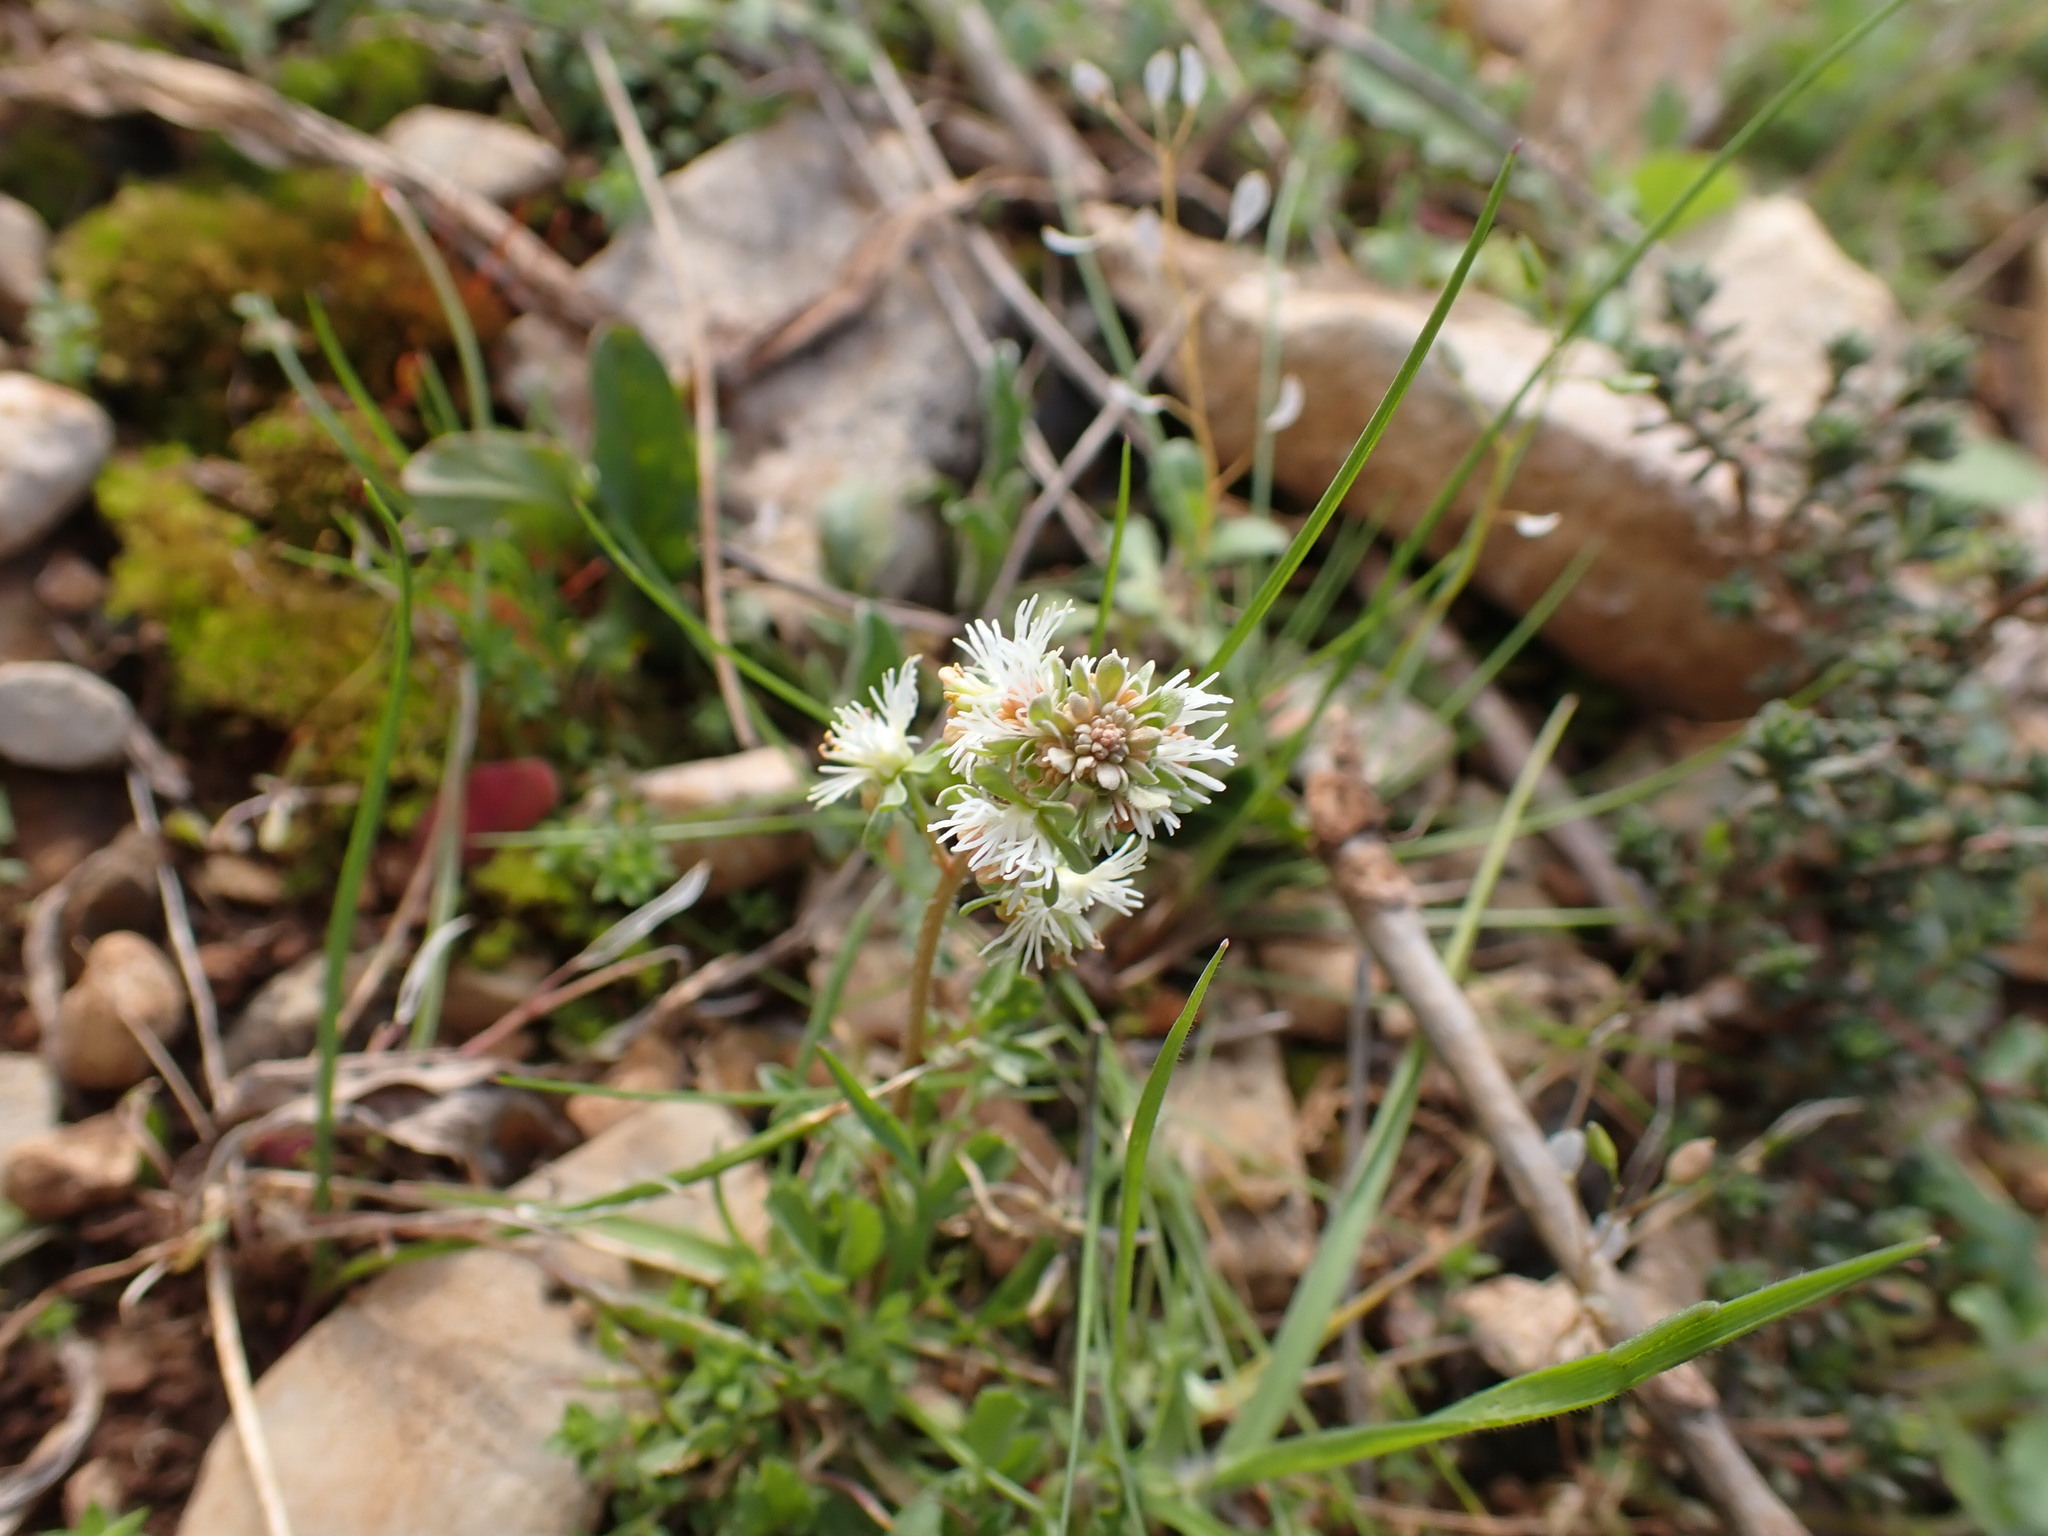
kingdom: Plantae
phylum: Tracheophyta
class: Magnoliopsida
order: Brassicales
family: Resedaceae
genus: Reseda
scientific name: Reseda phyteuma
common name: Corn mignonette
